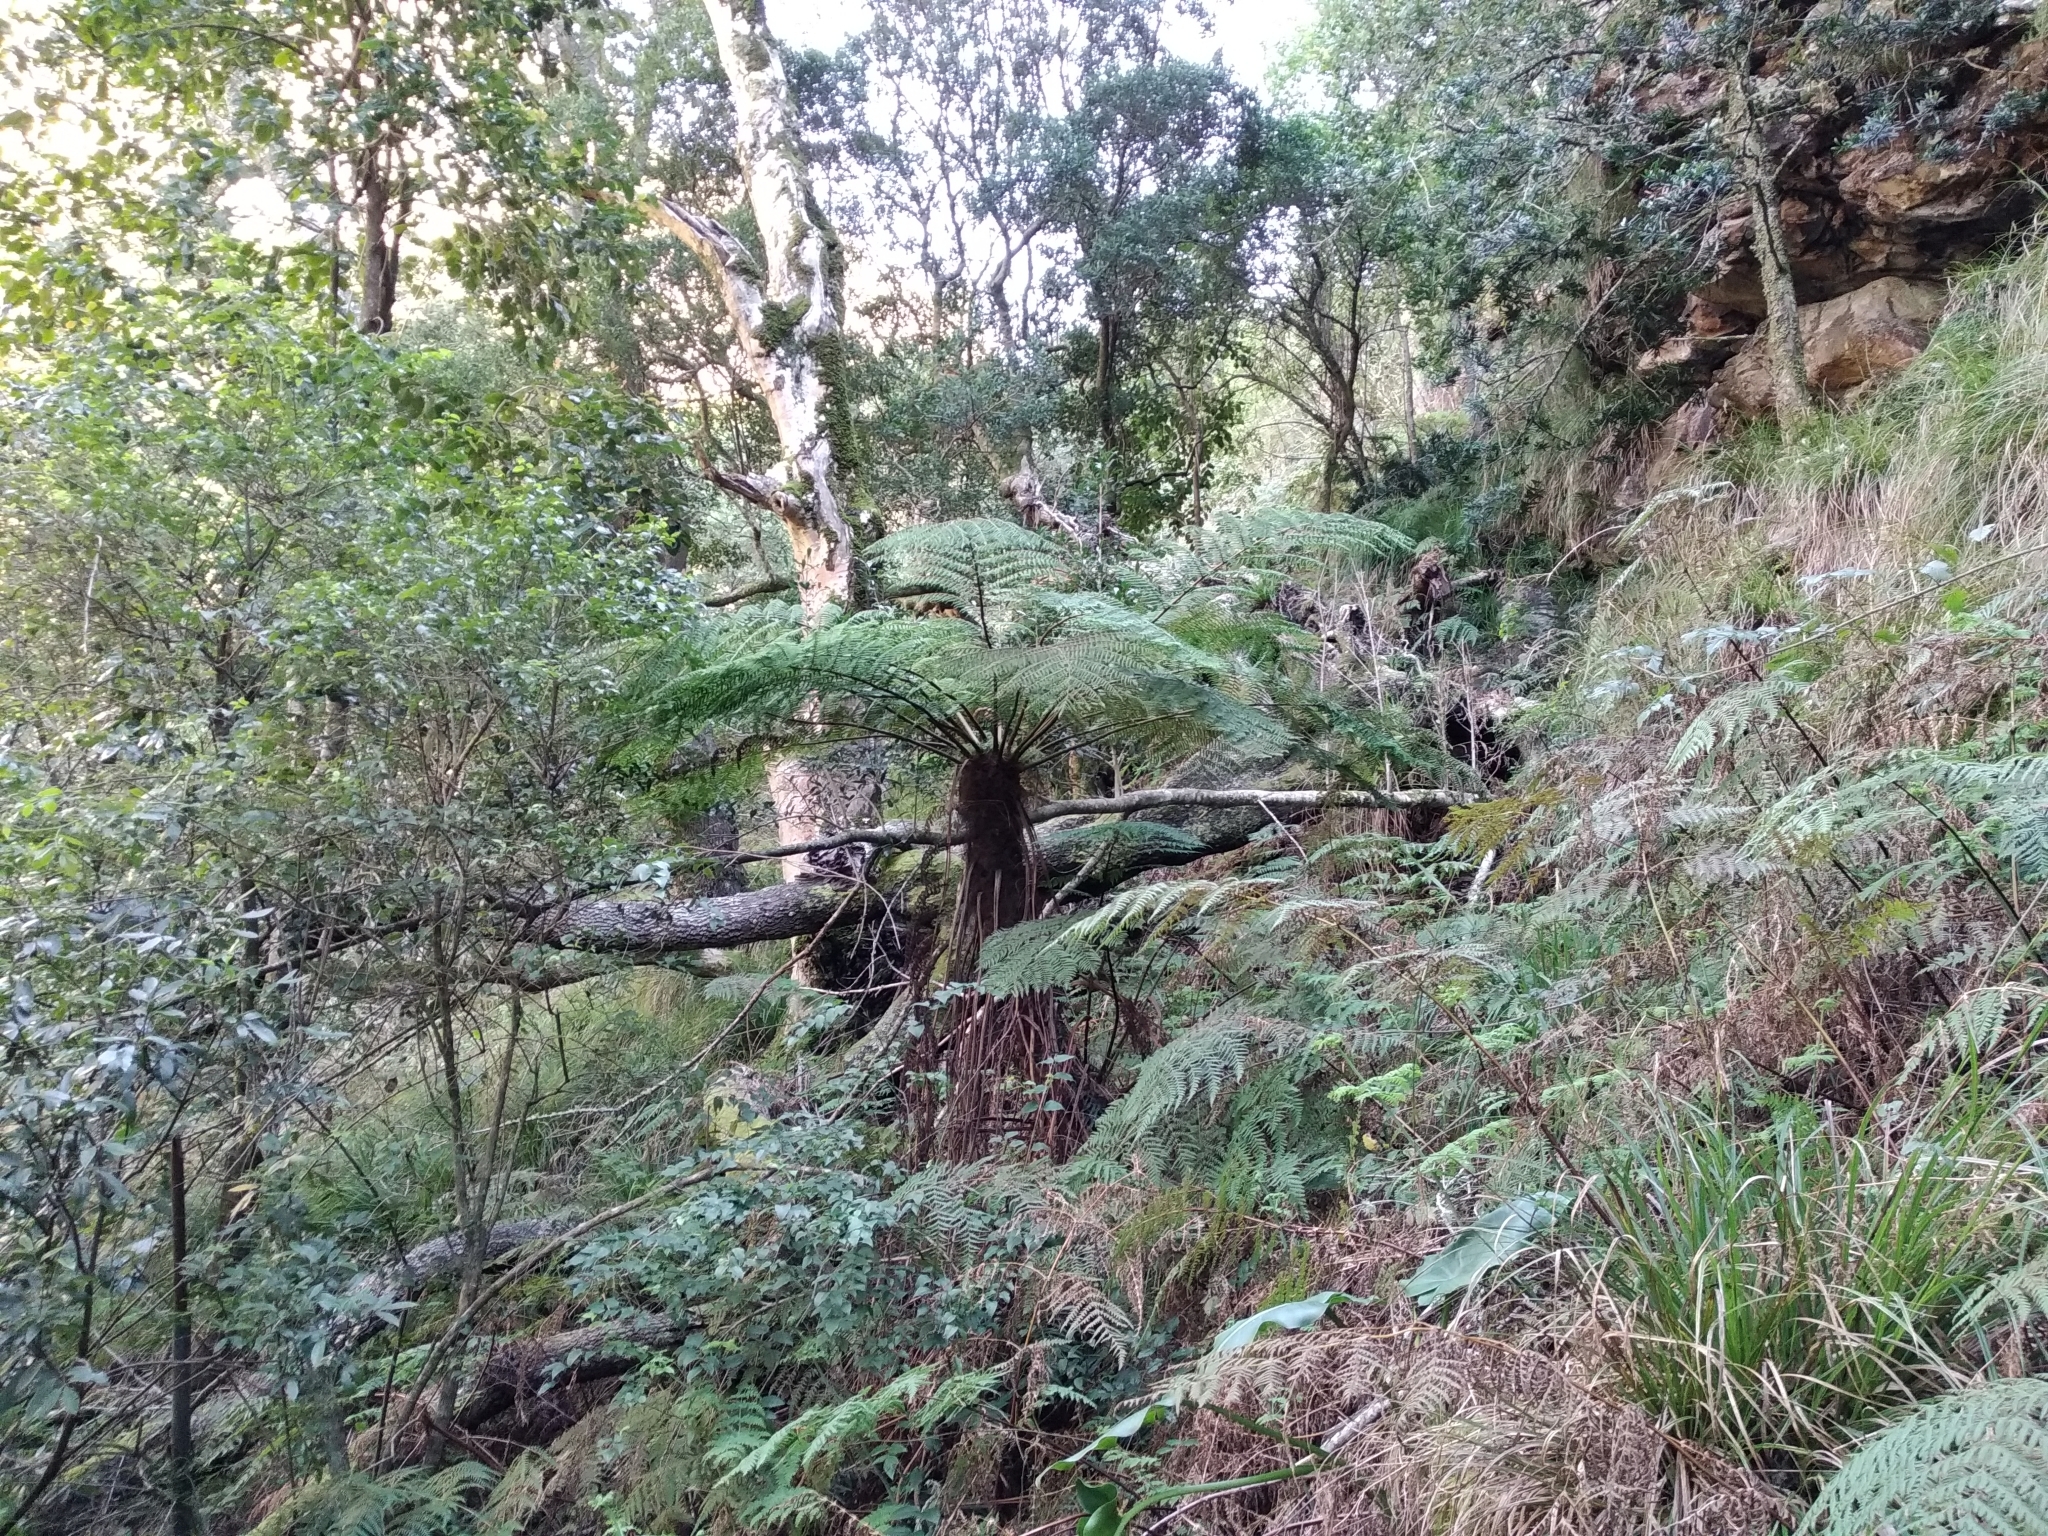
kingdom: Plantae
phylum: Tracheophyta
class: Polypodiopsida
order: Cyatheales
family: Cyatheaceae
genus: Gymnosphaera
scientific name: Gymnosphaera capensis
